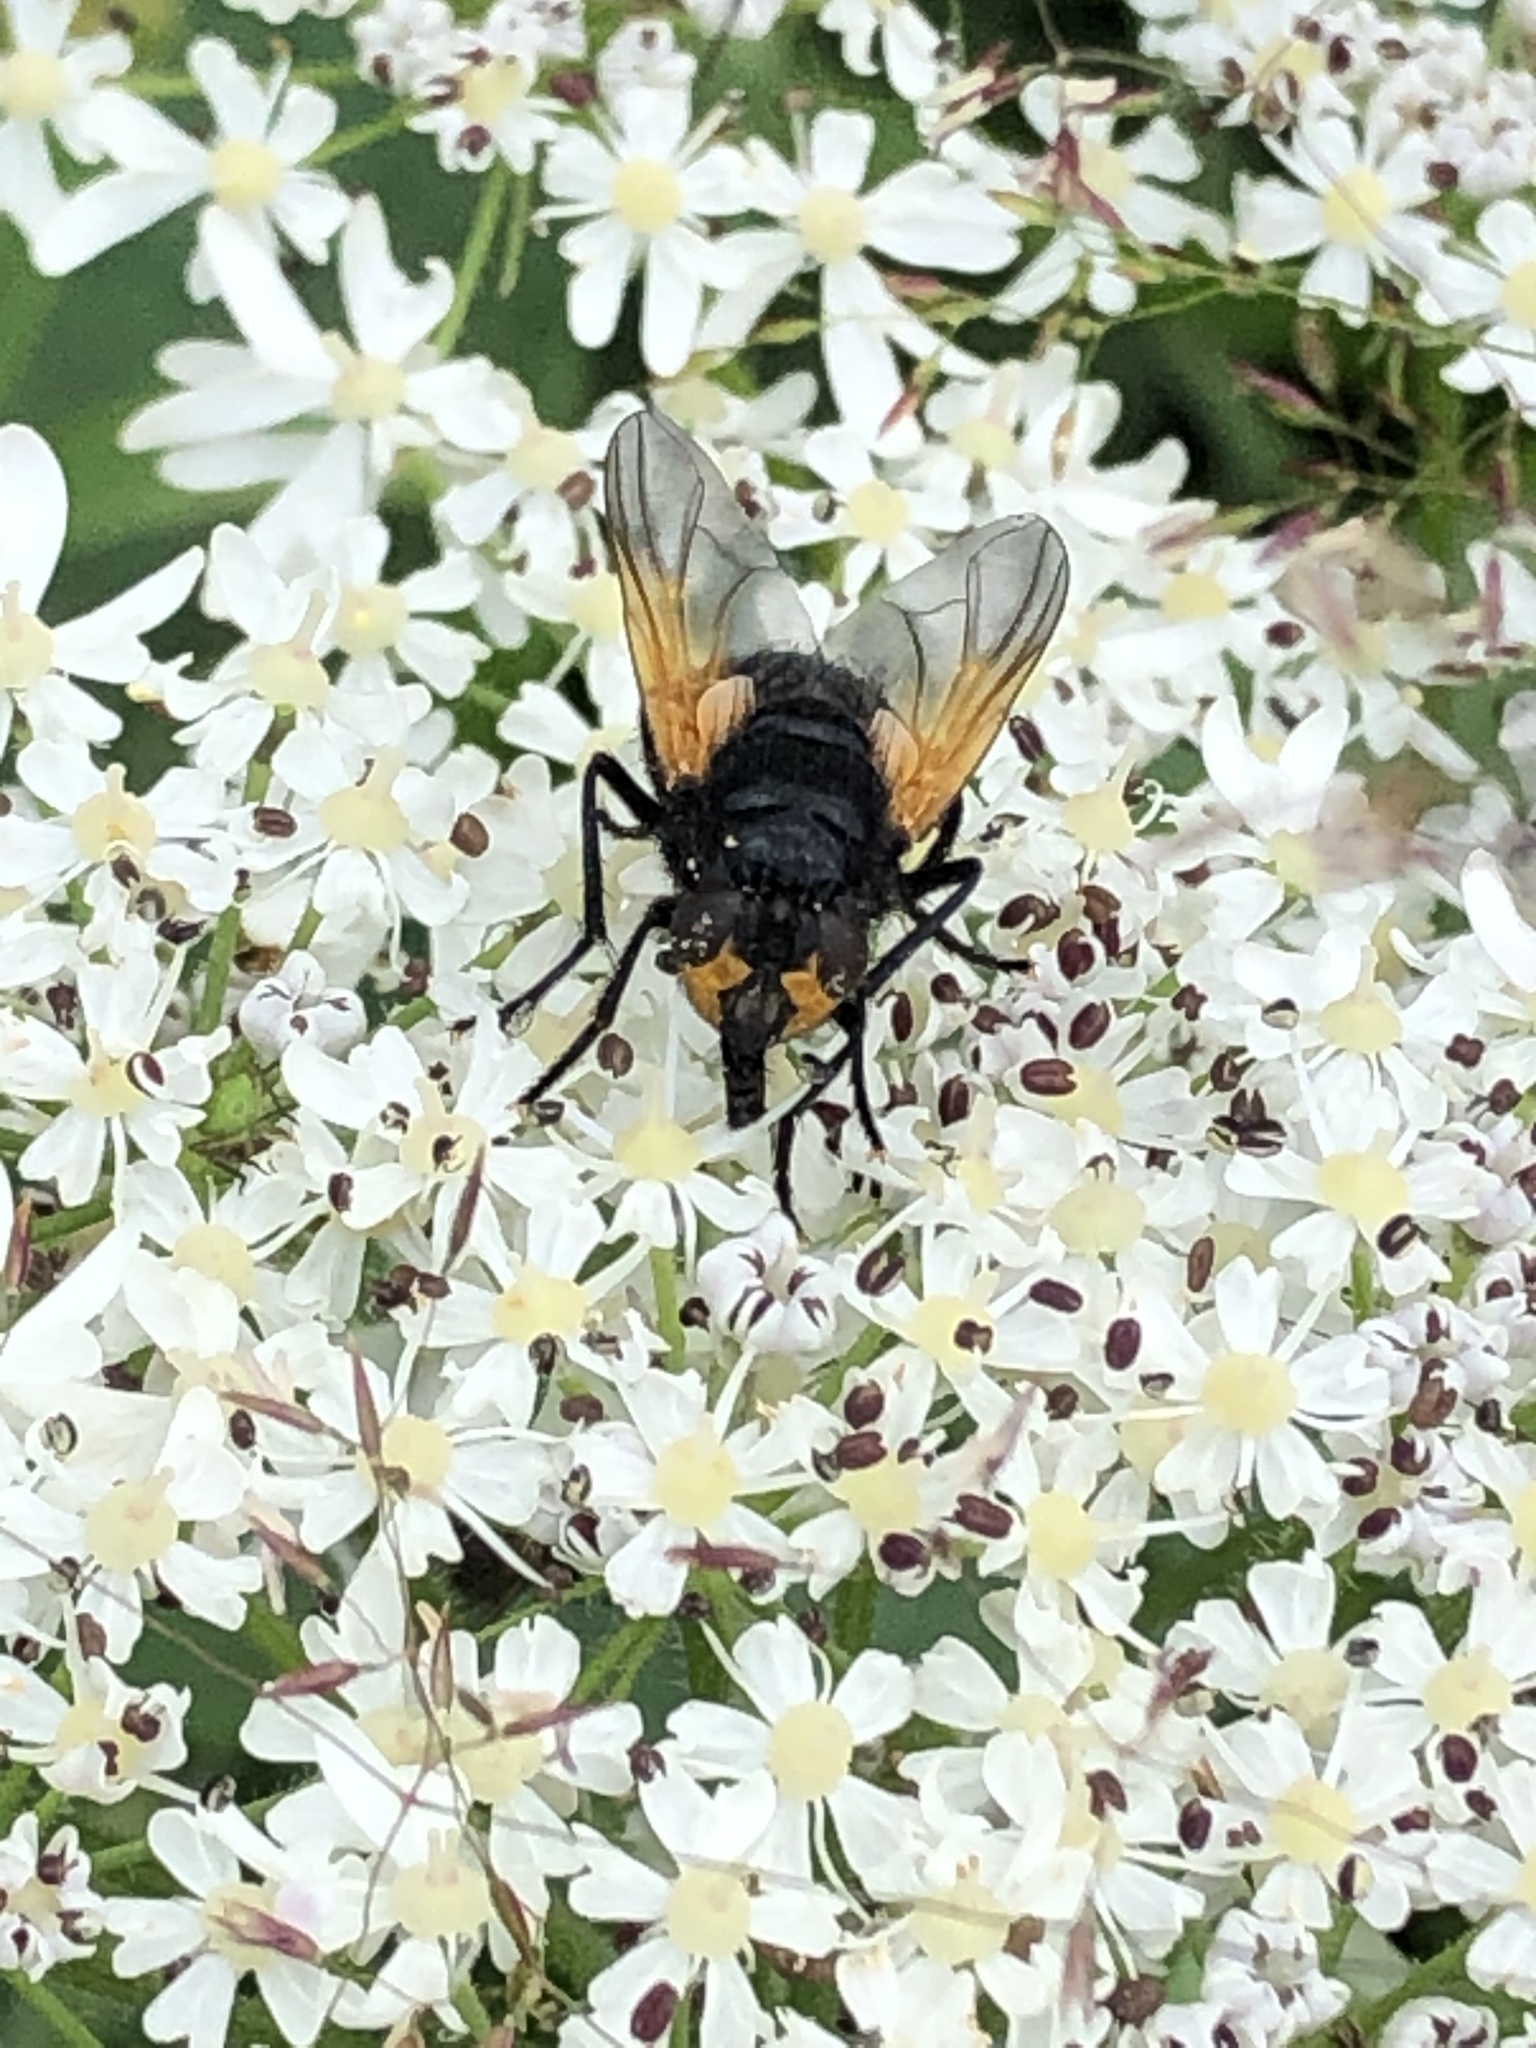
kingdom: Animalia
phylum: Arthropoda
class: Insecta
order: Diptera
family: Muscidae
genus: Mesembrina
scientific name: Mesembrina meridiana
